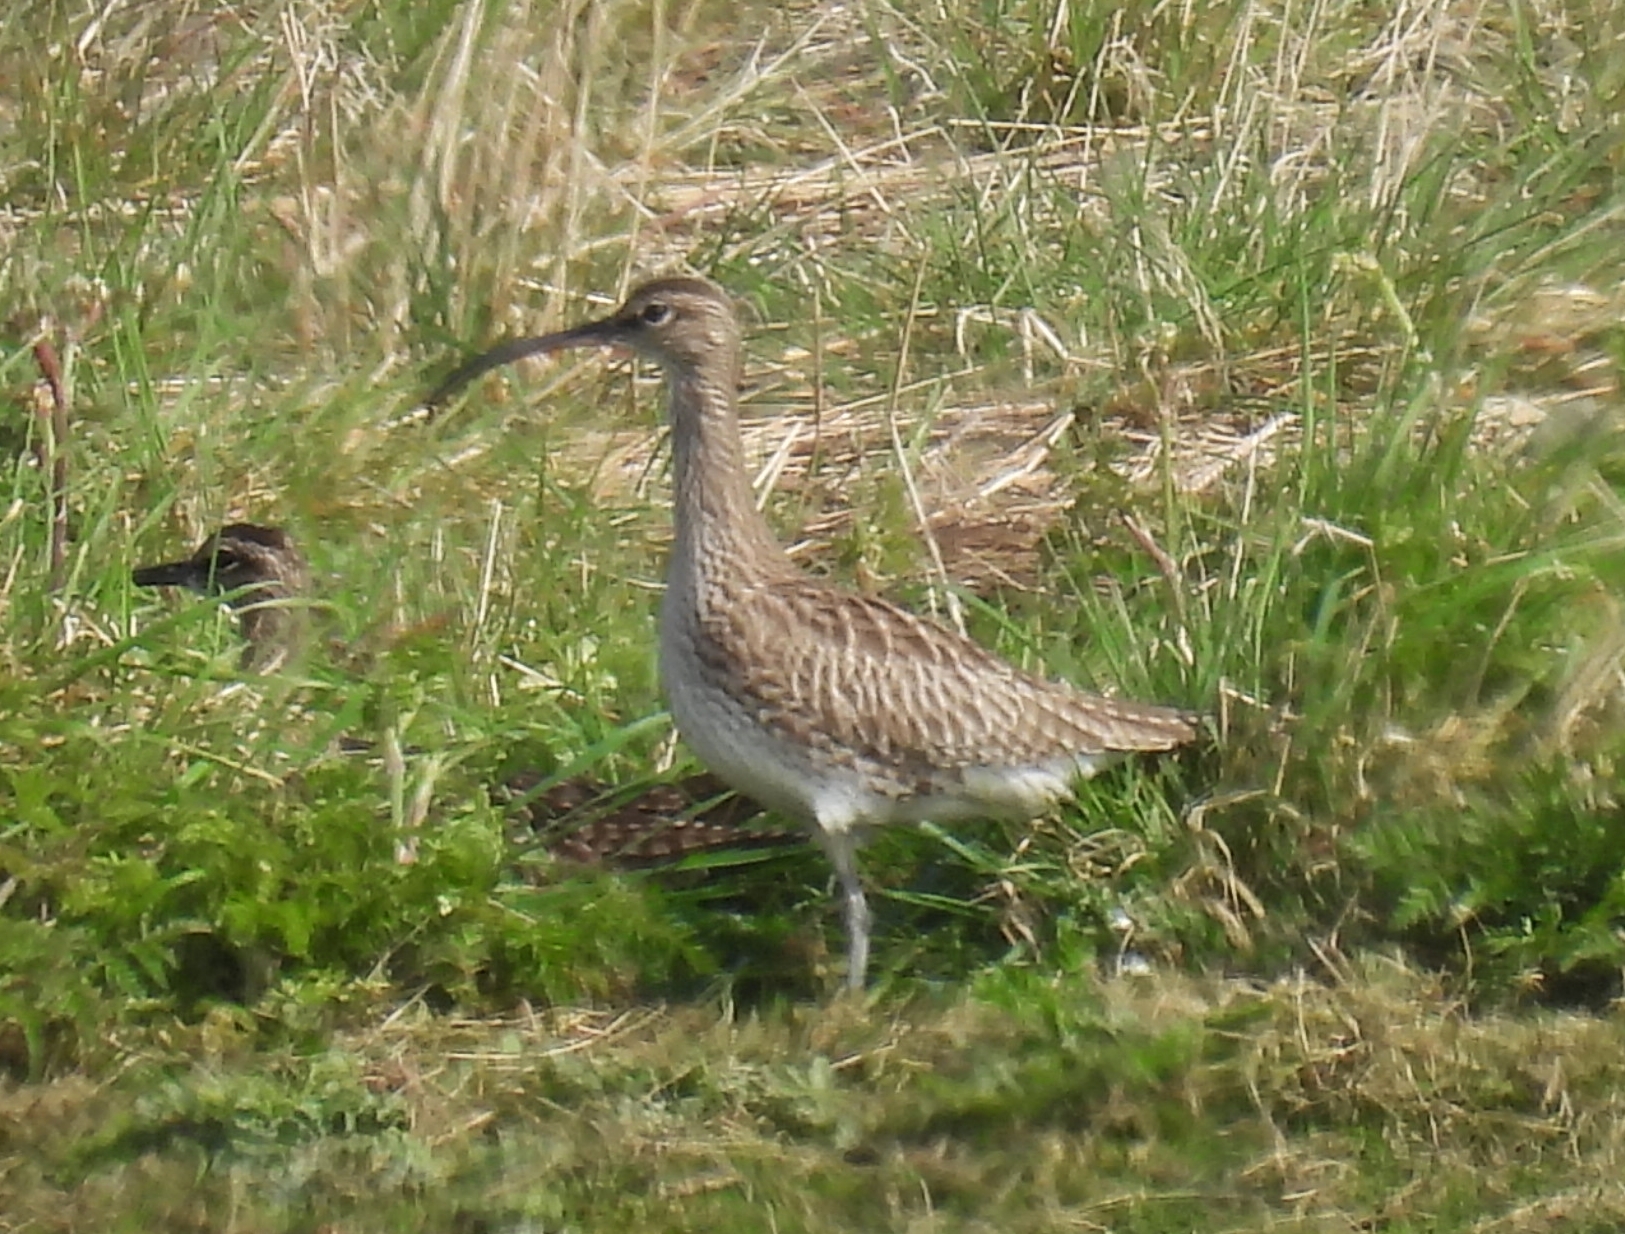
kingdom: Animalia
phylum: Chordata
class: Aves
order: Charadriiformes
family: Scolopacidae
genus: Numenius
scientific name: Numenius phaeopus
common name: Whimbrel
